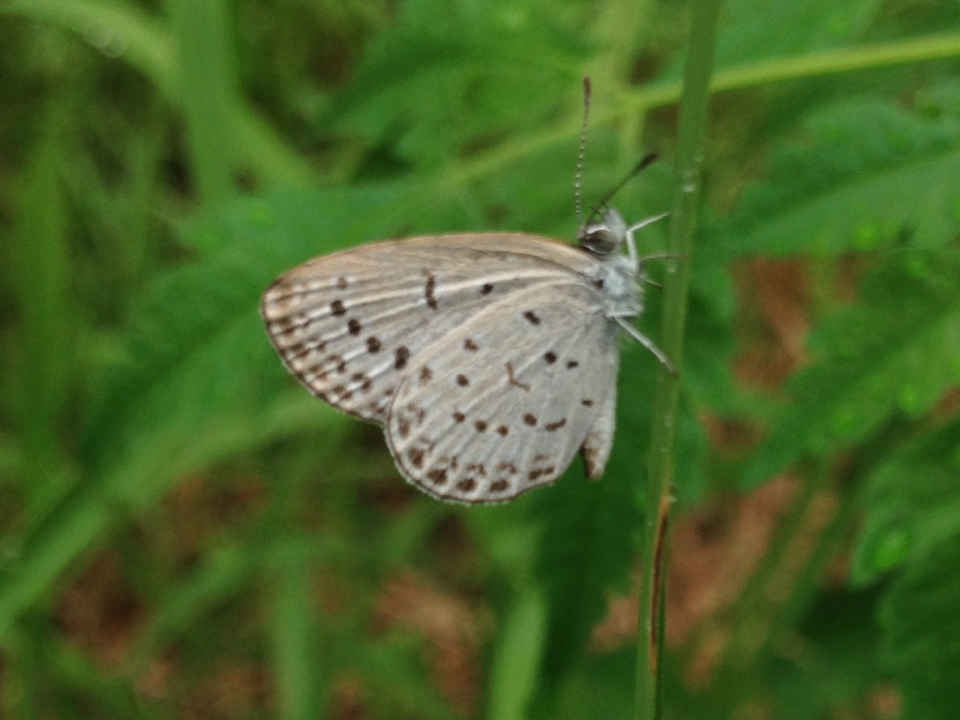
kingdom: Animalia
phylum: Arthropoda
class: Insecta
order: Lepidoptera
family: Lycaenidae
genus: Pseudozizeeria
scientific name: Pseudozizeeria maha
